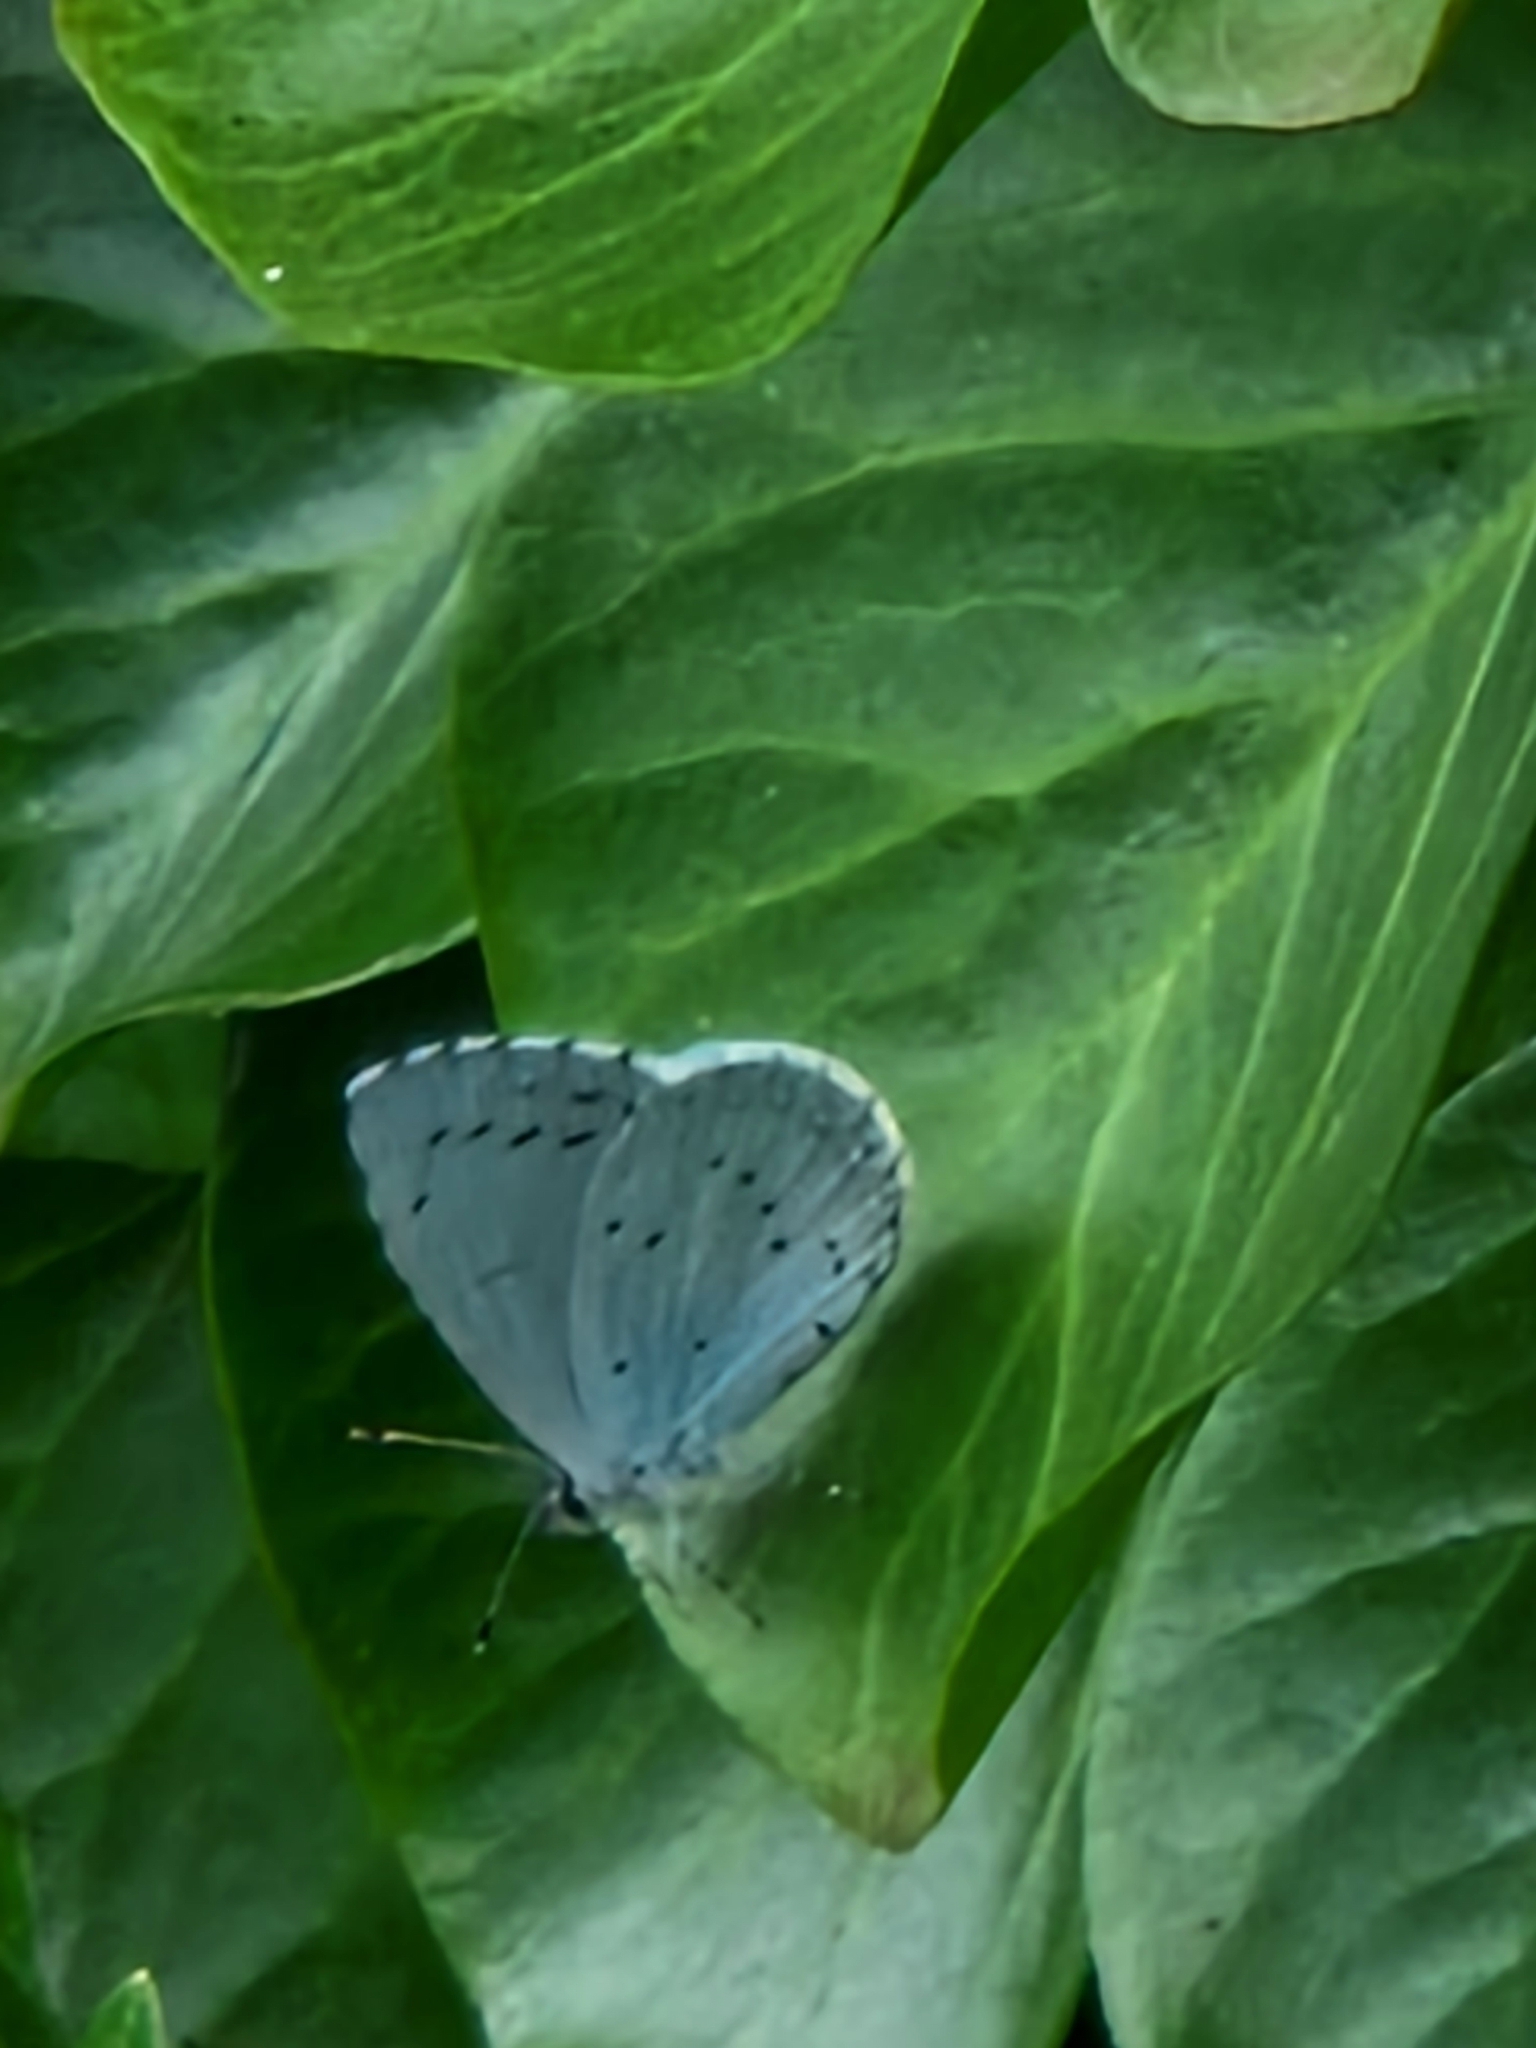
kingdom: Animalia
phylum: Arthropoda
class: Insecta
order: Lepidoptera
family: Lycaenidae
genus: Celastrina
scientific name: Celastrina argiolus
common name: Holly blue
